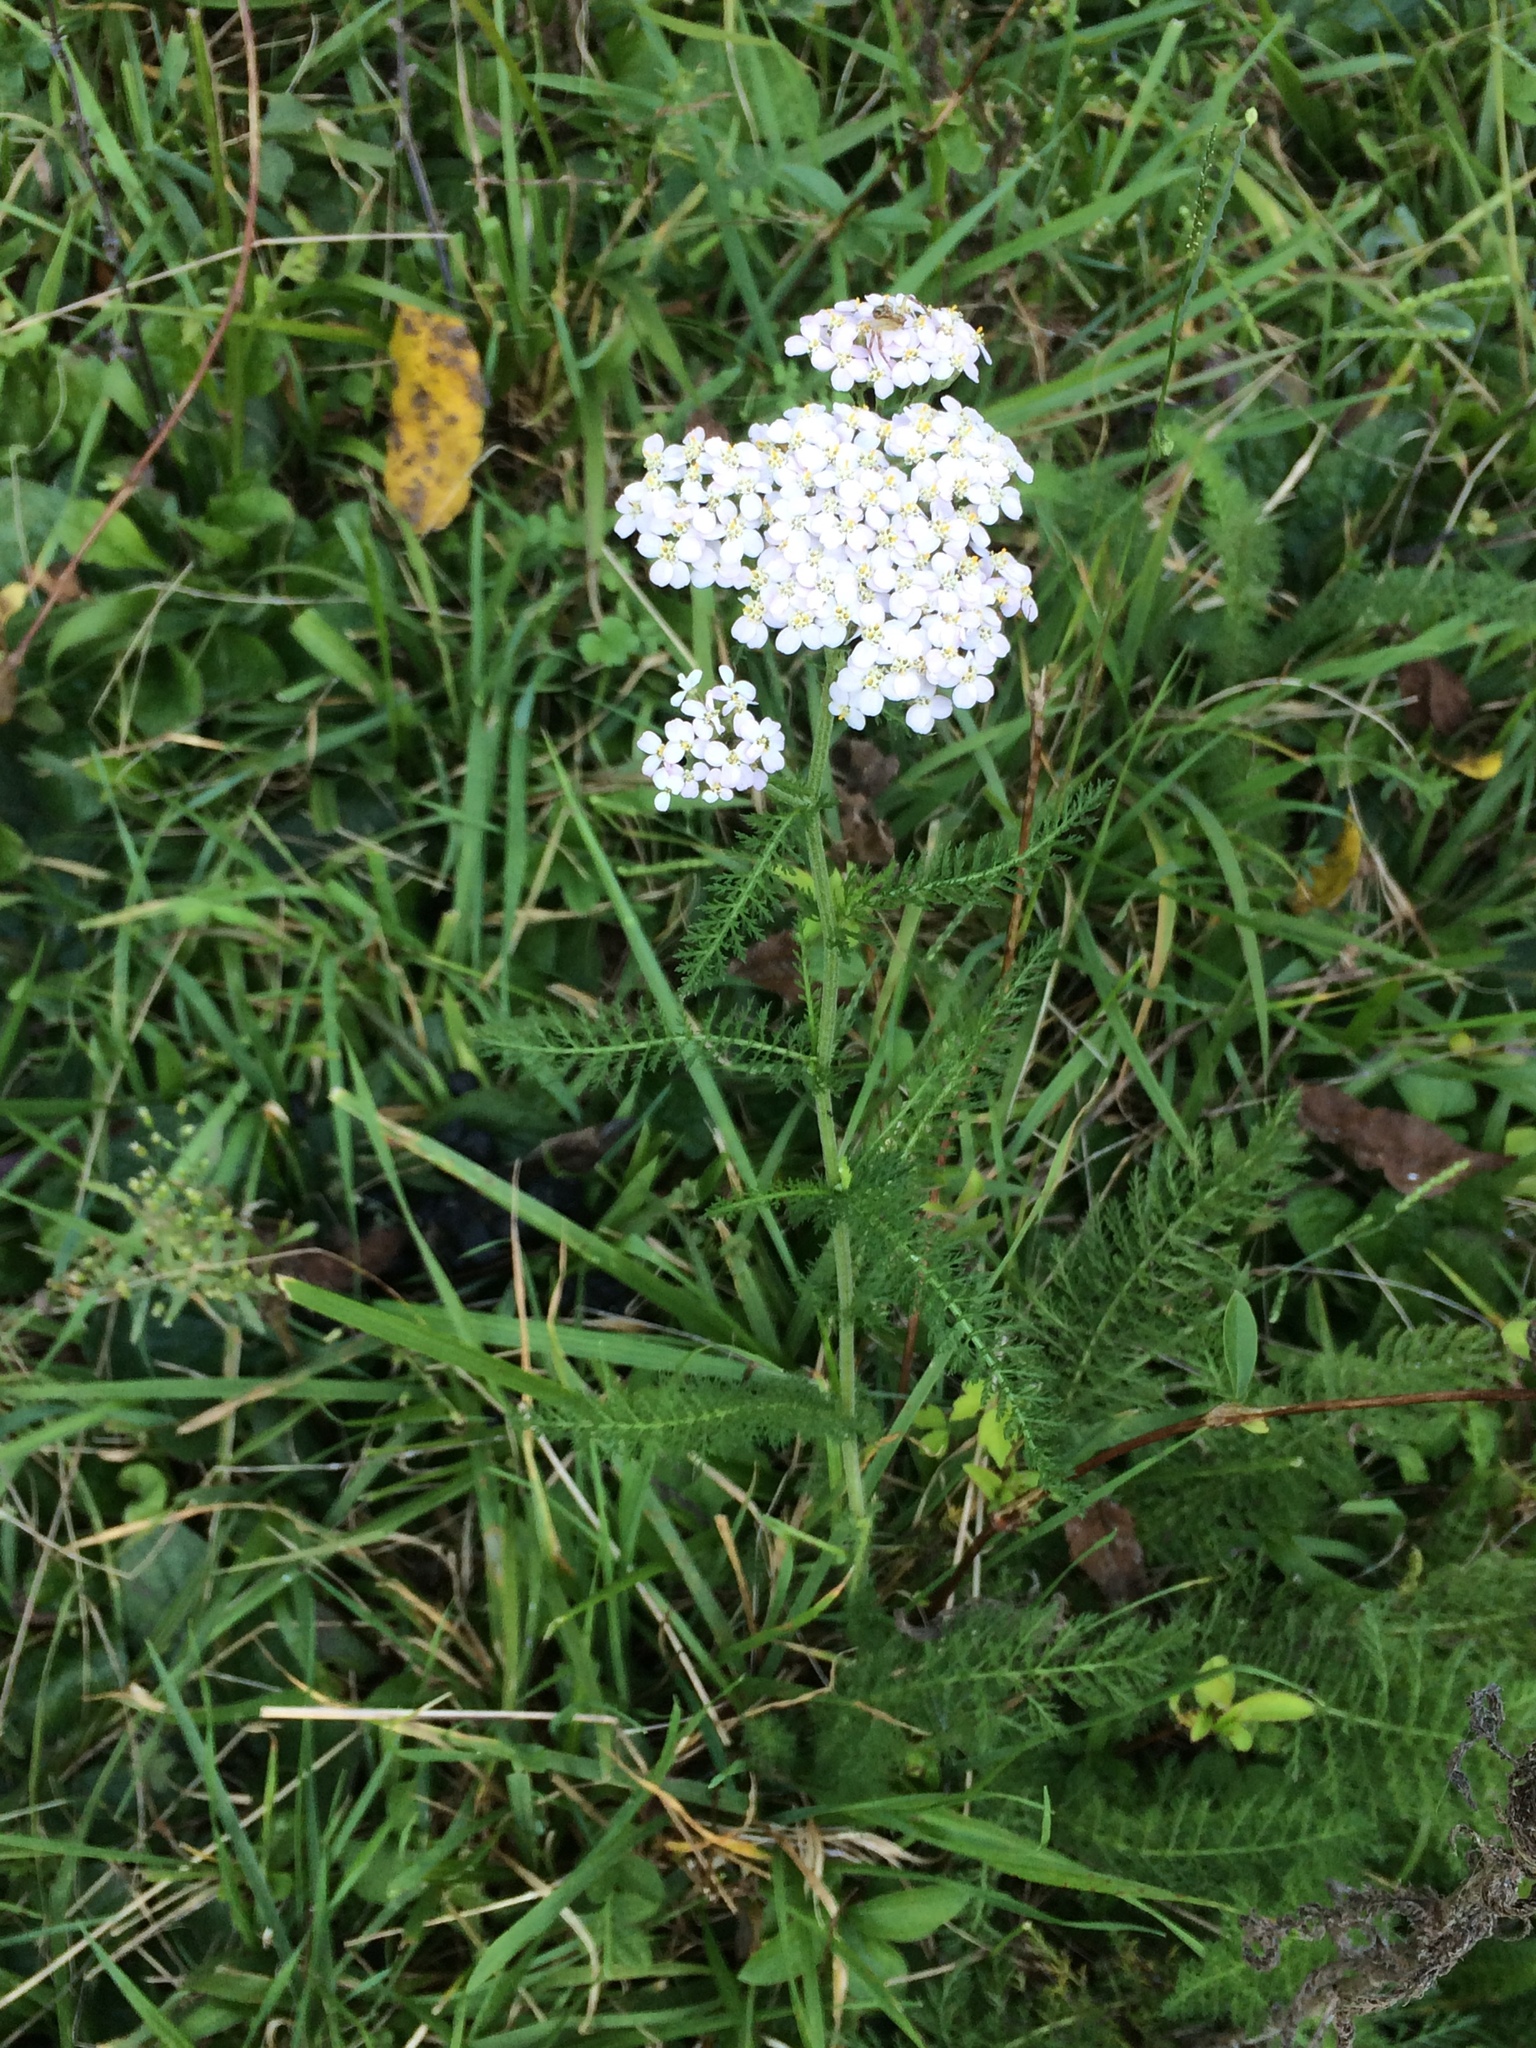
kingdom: Plantae
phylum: Tracheophyta
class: Magnoliopsida
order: Asterales
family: Asteraceae
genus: Achillea
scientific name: Achillea millefolium
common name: Yarrow
